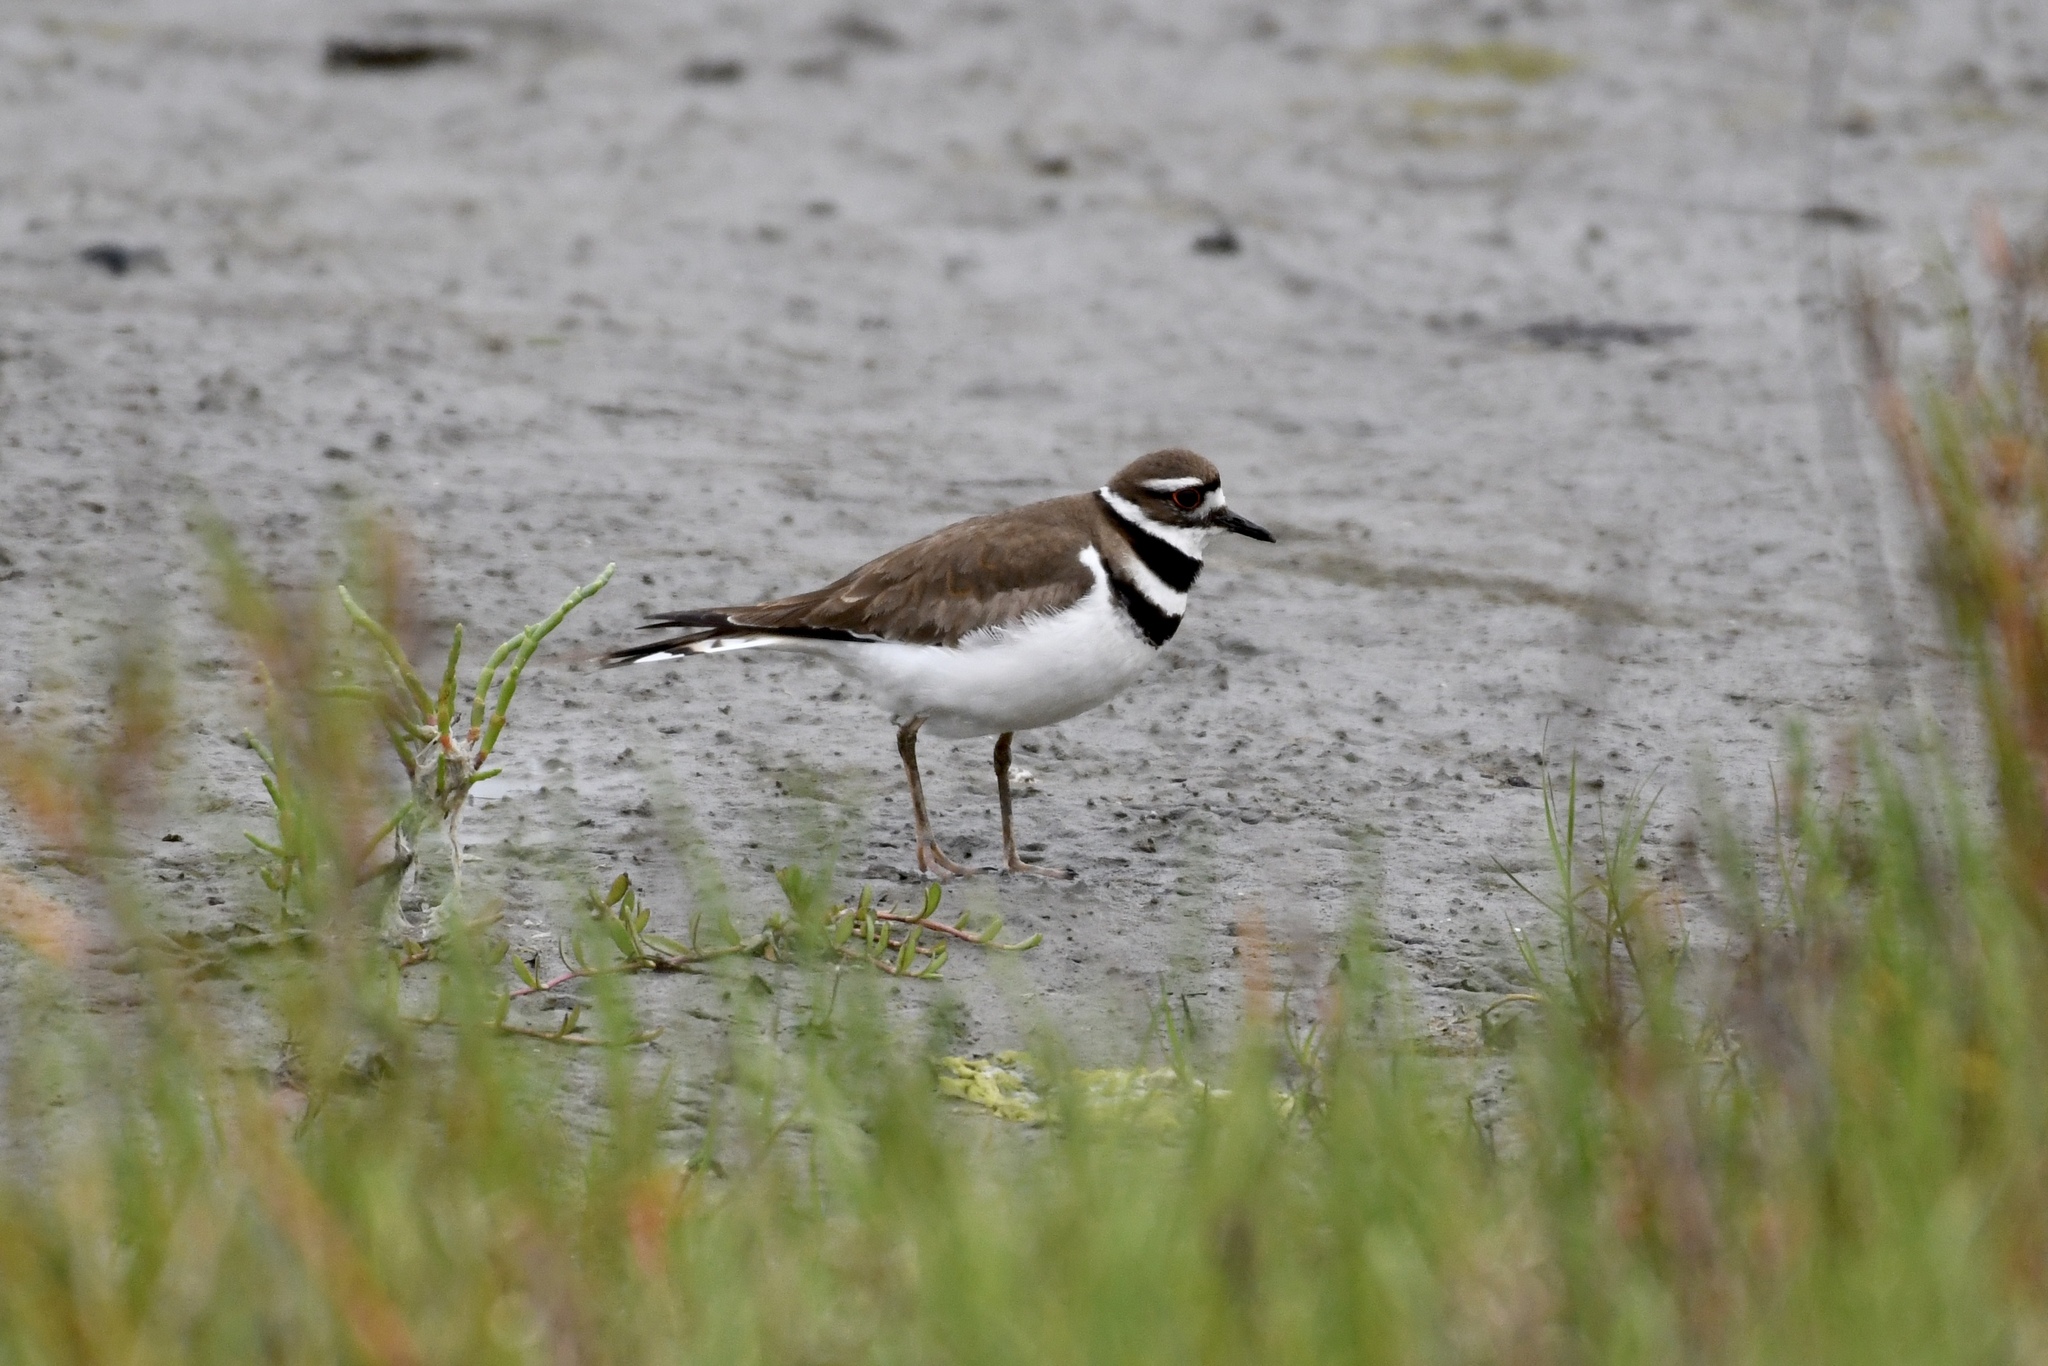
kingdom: Animalia
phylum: Chordata
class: Aves
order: Charadriiformes
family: Charadriidae
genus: Charadrius
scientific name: Charadrius vociferus
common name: Killdeer
